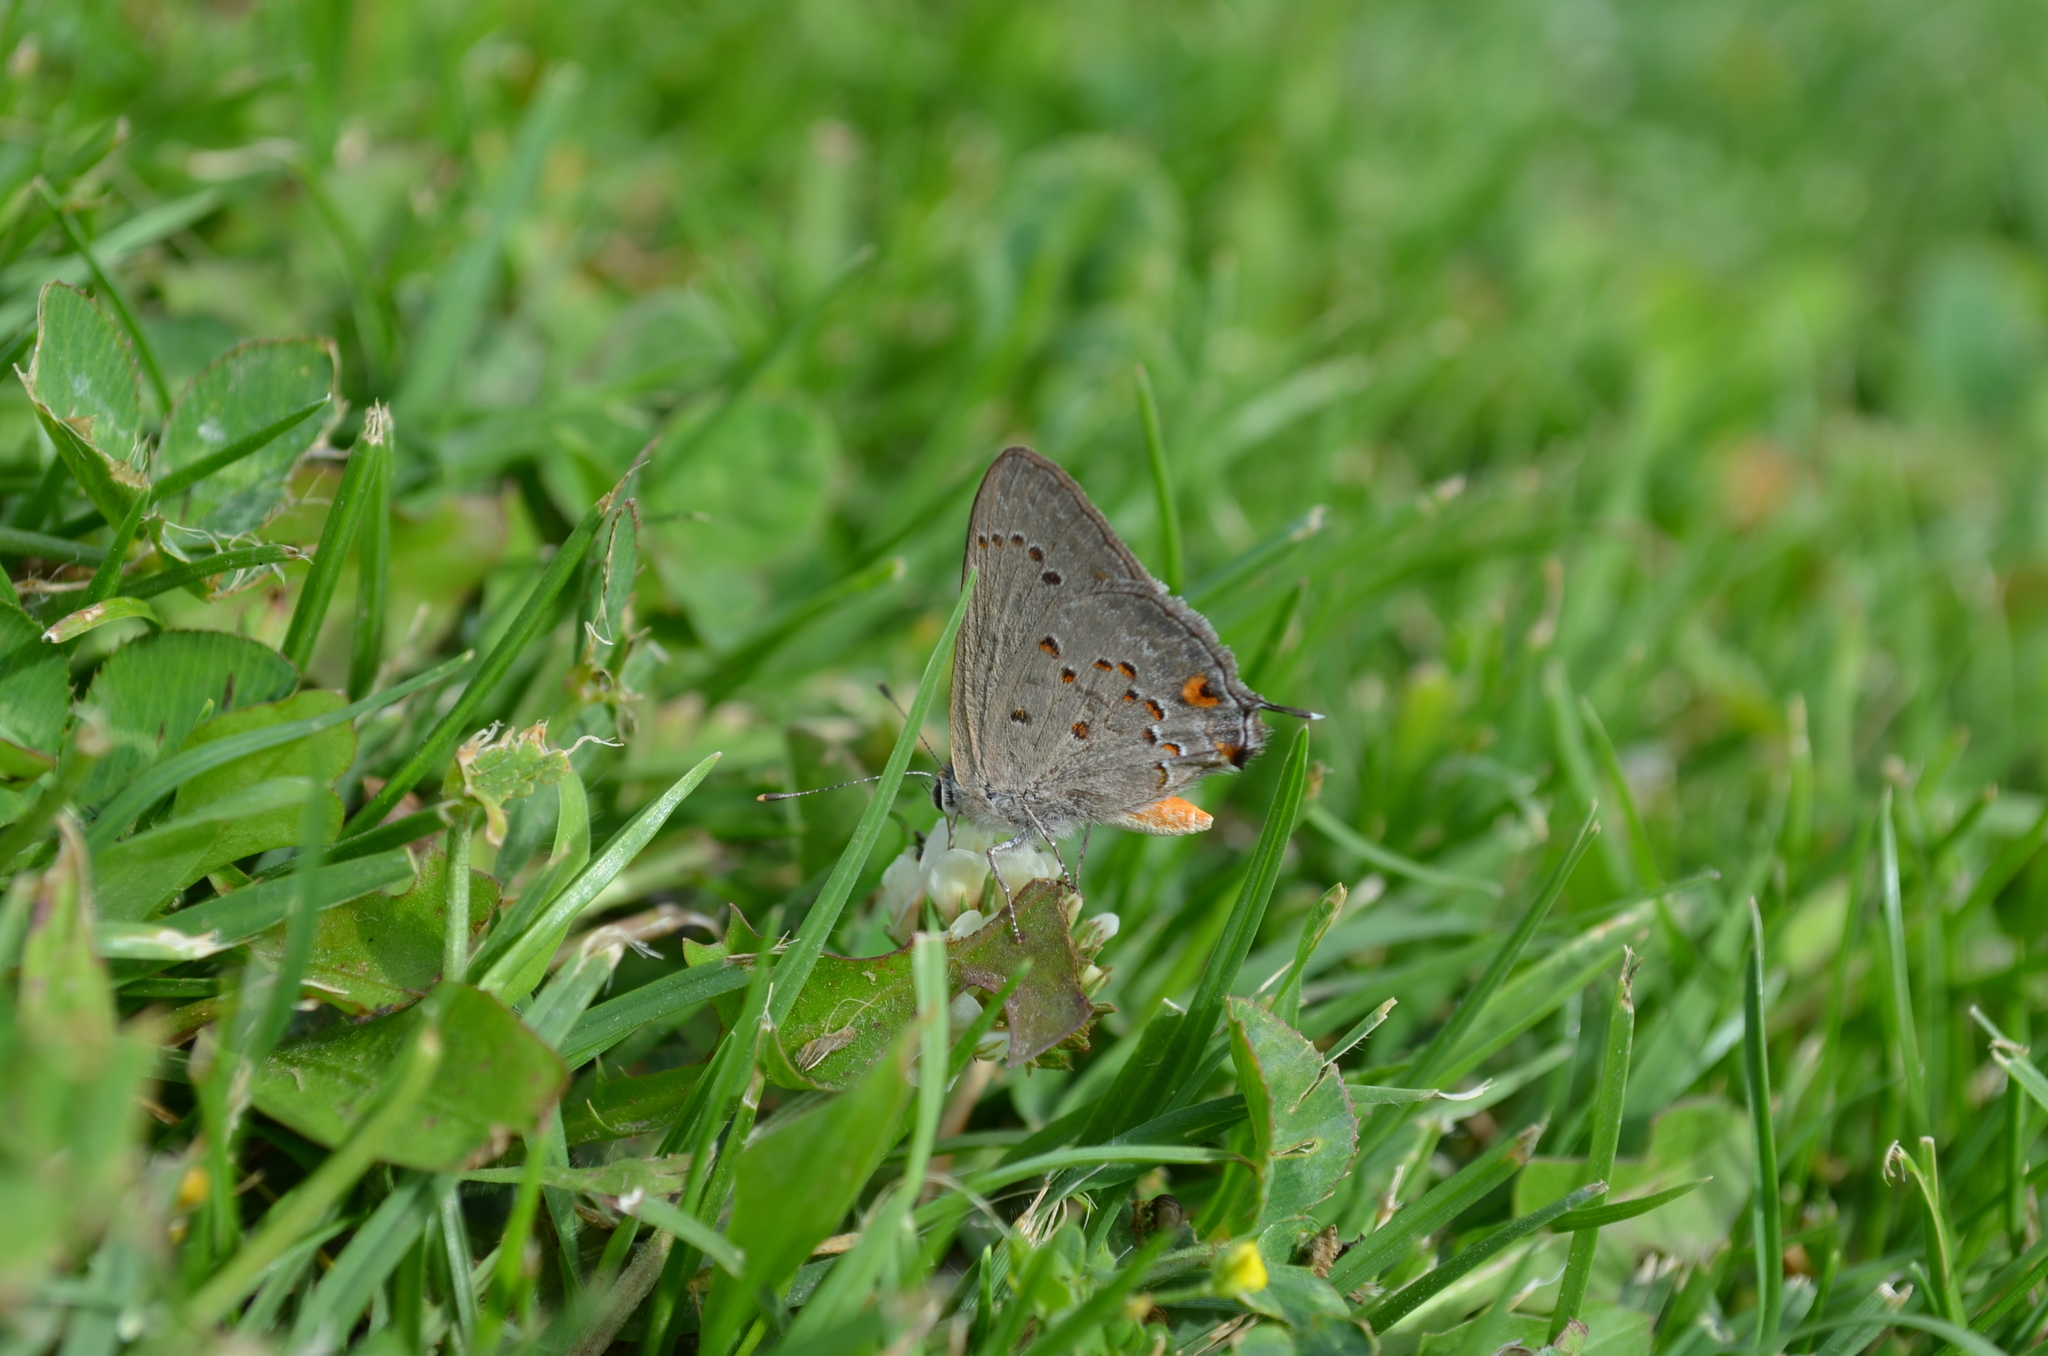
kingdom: Animalia
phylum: Arthropoda
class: Insecta
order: Lepidoptera
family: Lycaenidae
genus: Strymon
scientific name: Strymon eurytulus
